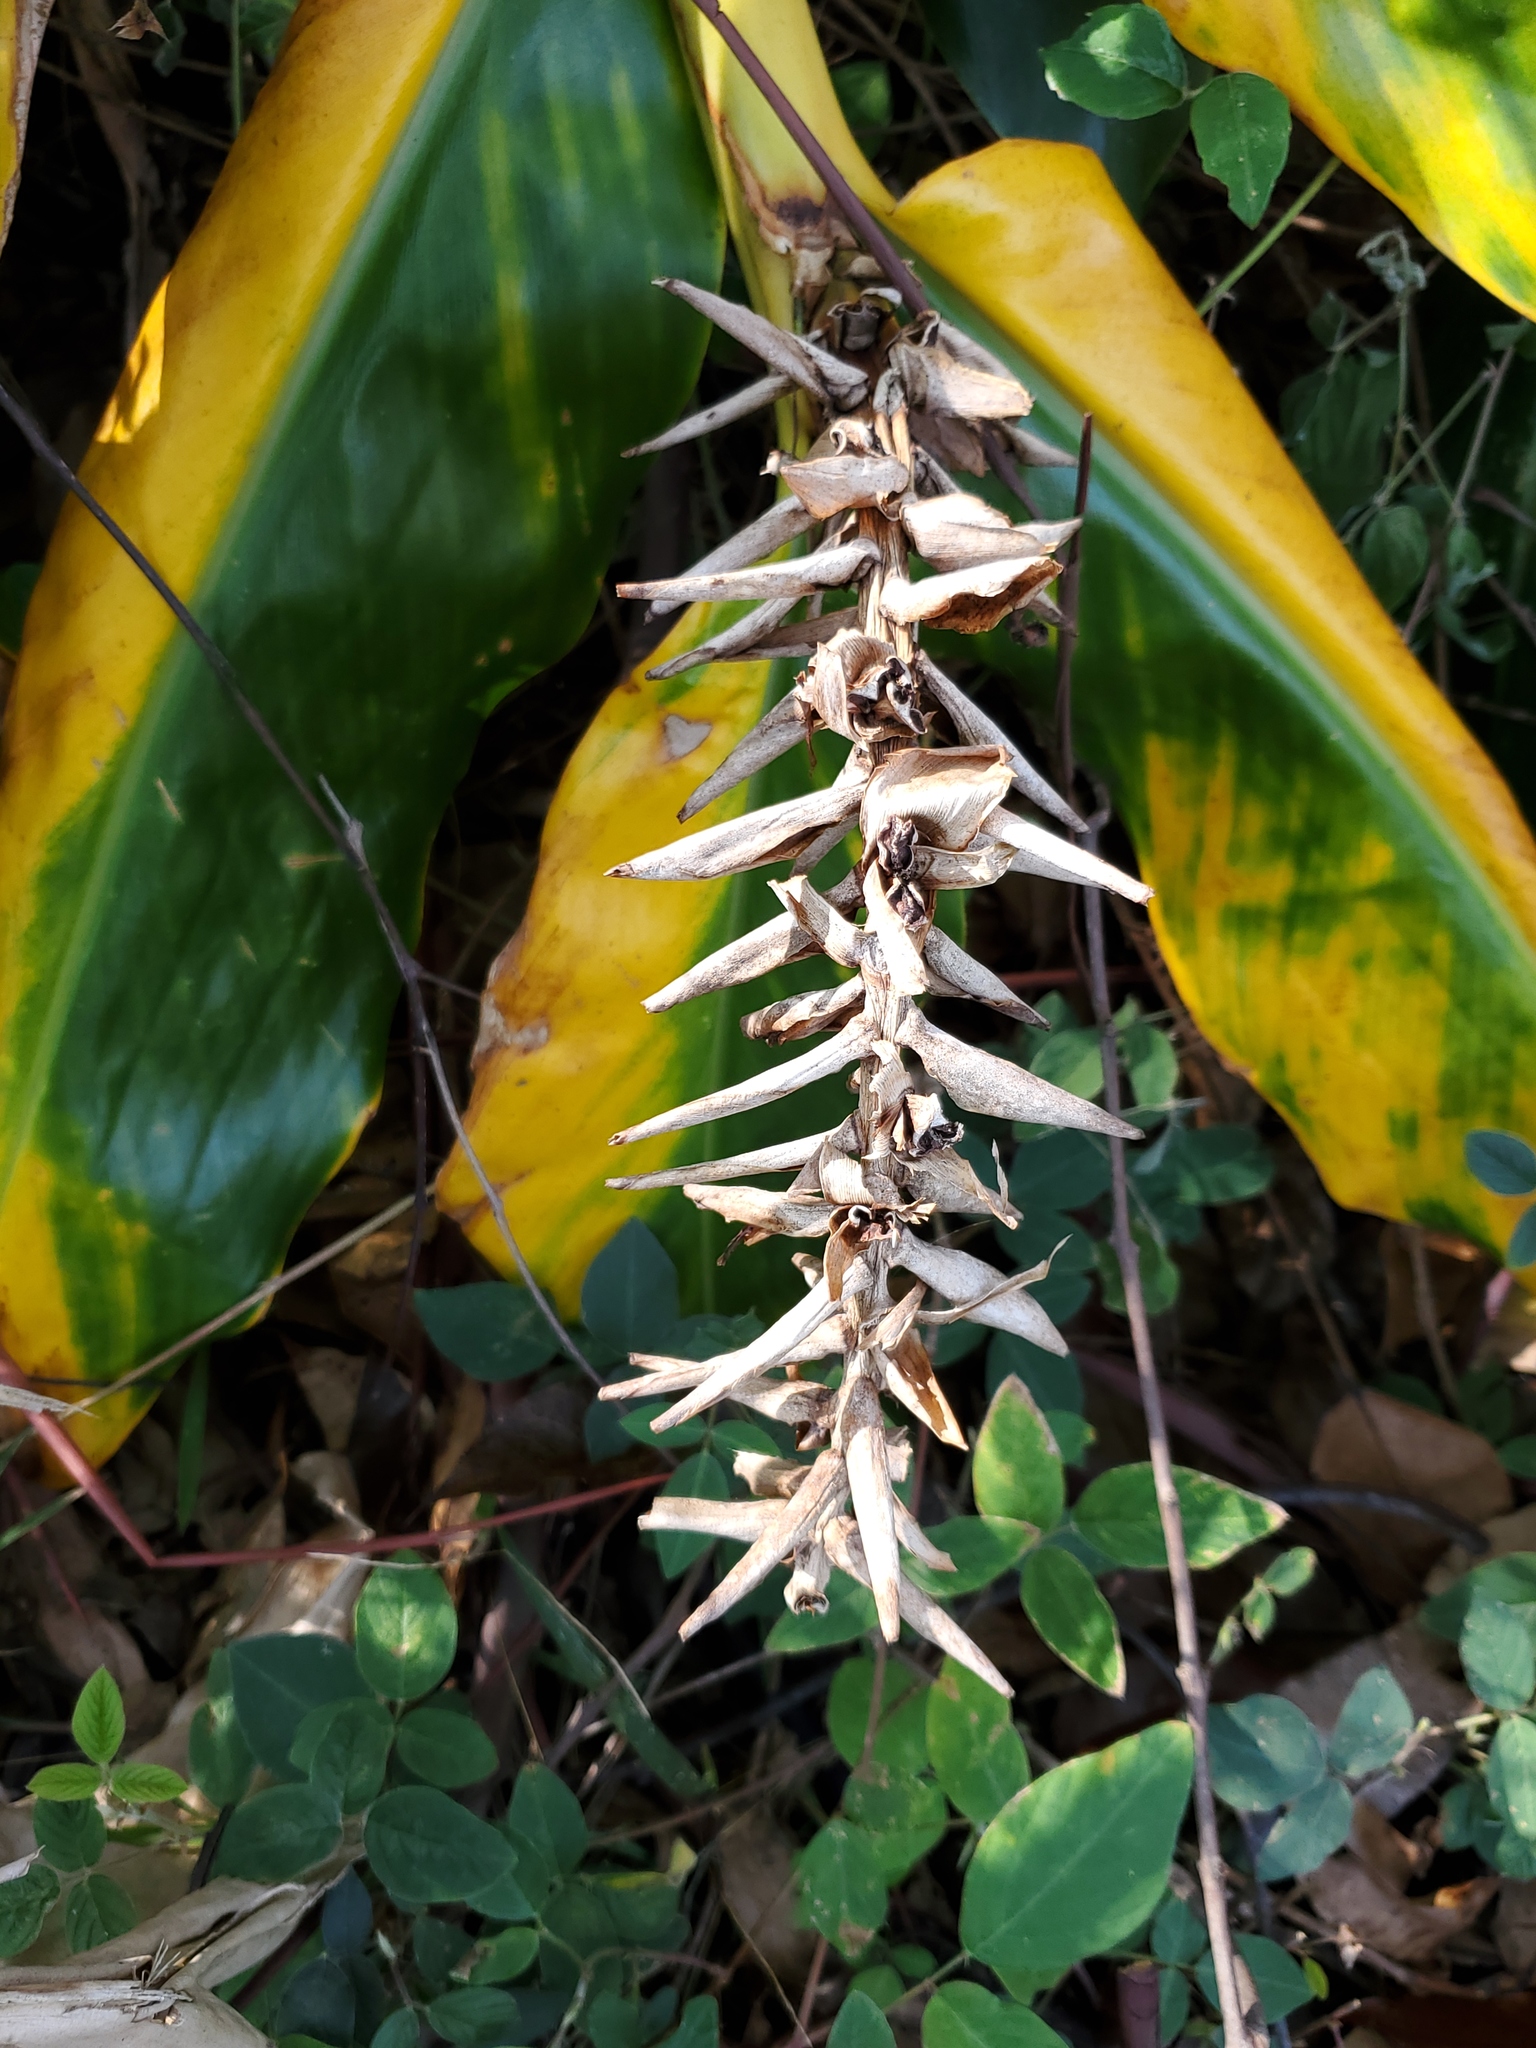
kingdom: Plantae
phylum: Tracheophyta
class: Liliopsida
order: Zingiberales
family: Zingiberaceae
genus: Hedychium
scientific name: Hedychium gardnerianum
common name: Himalayan ginger
